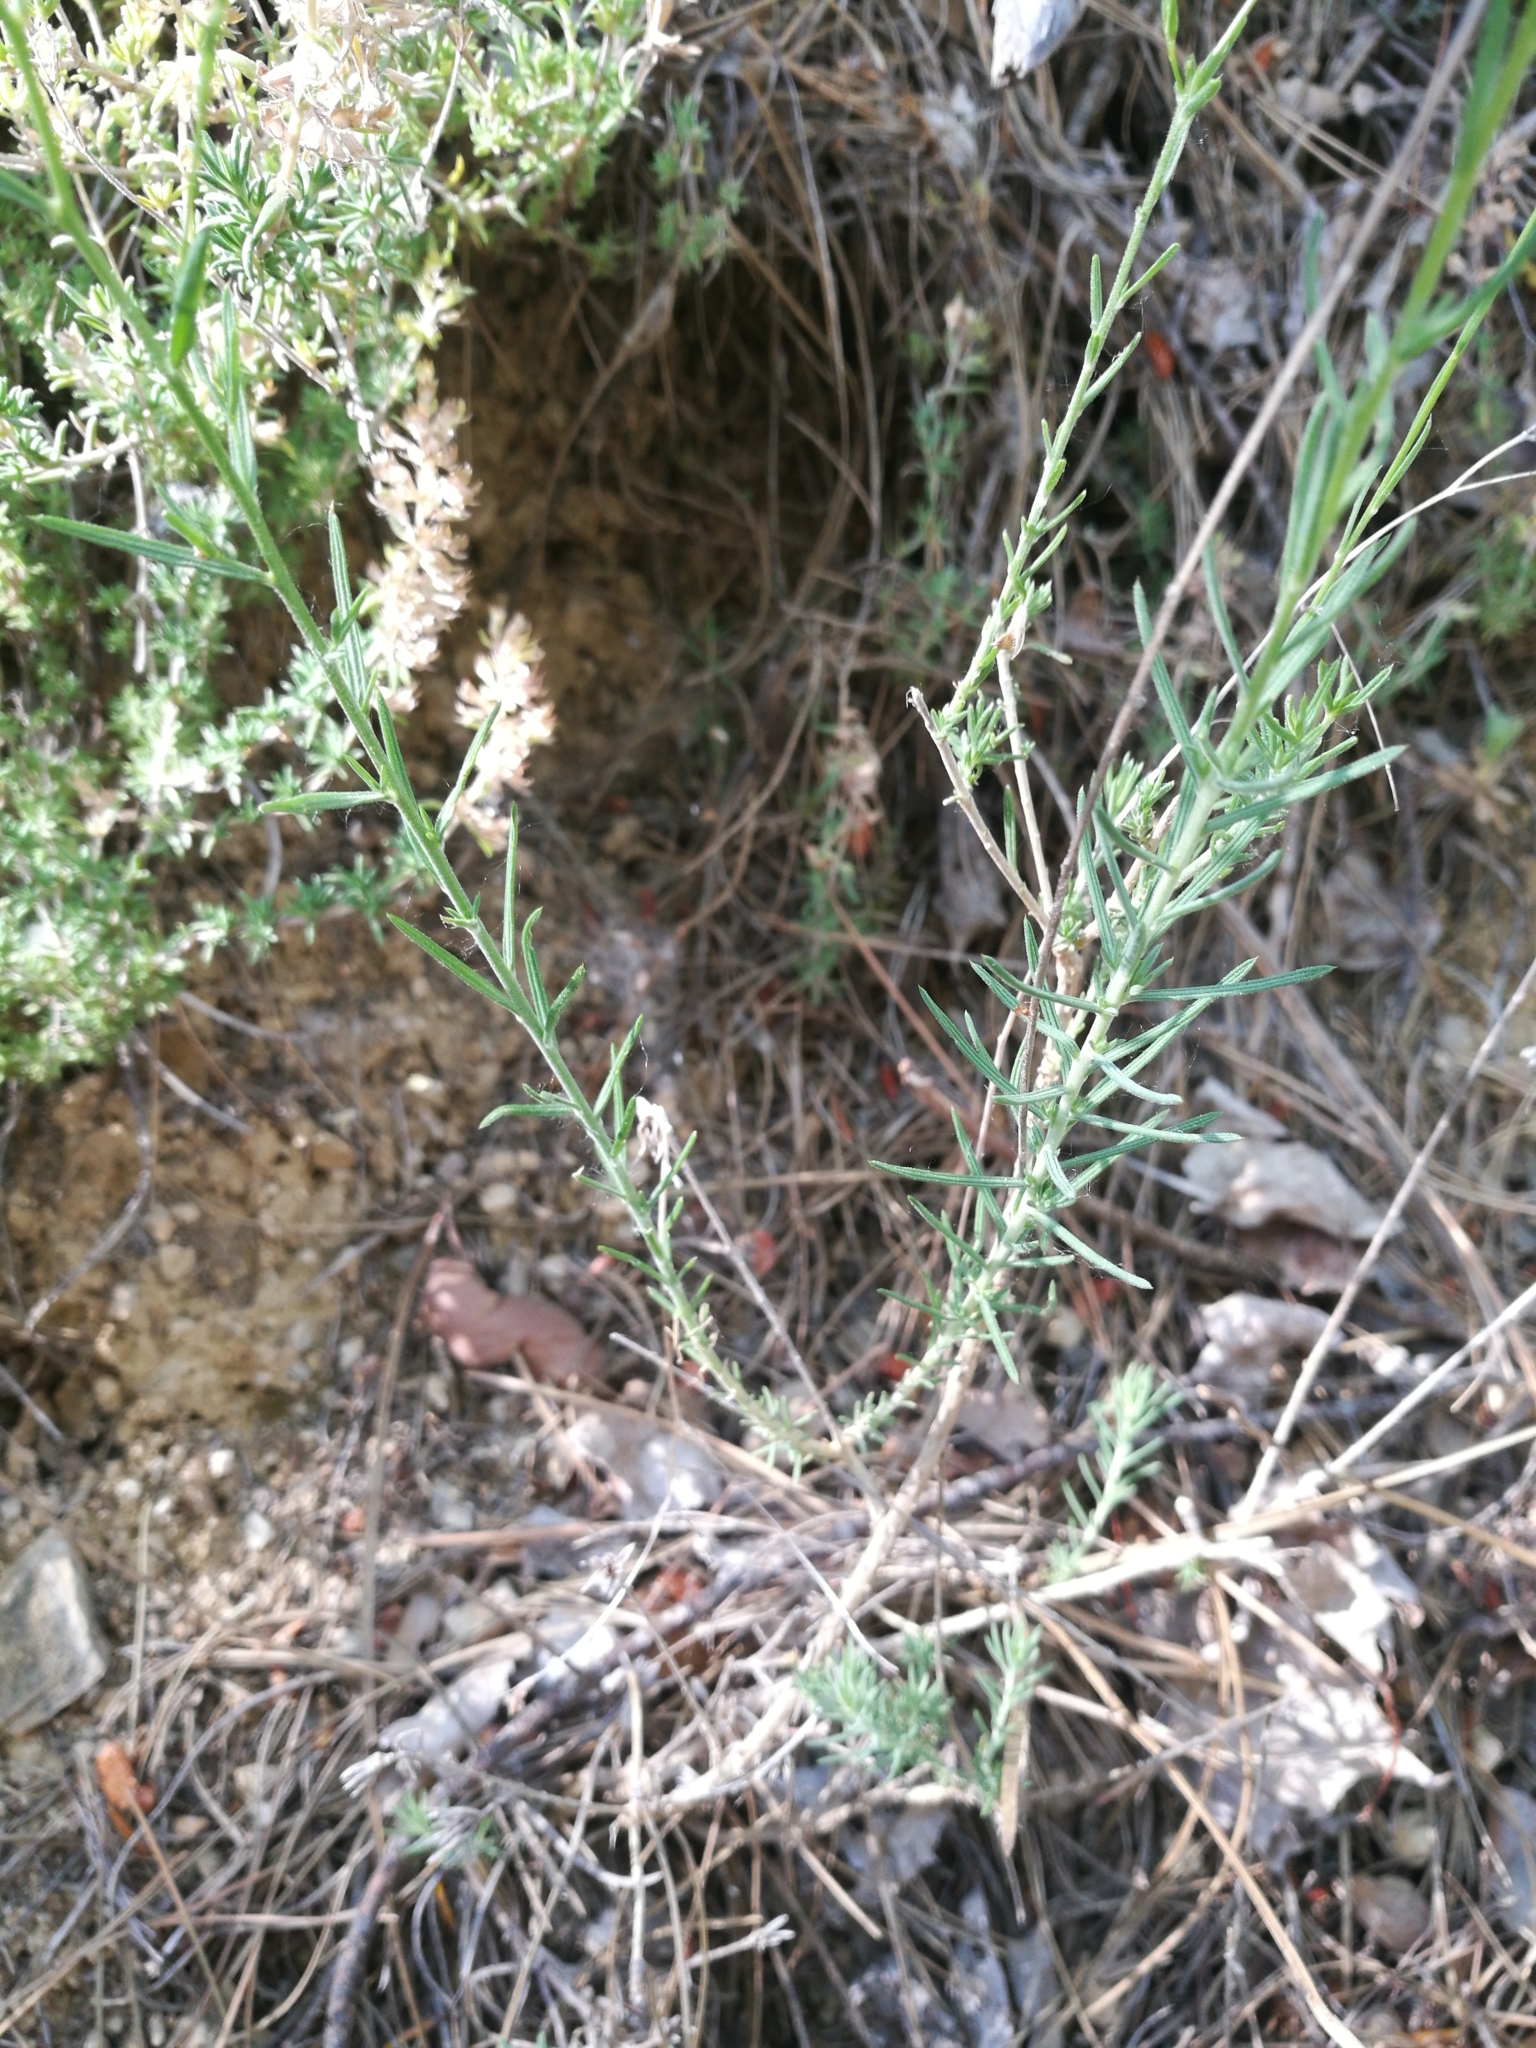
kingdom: Plantae
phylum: Tracheophyta
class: Magnoliopsida
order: Malpighiales
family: Linaceae
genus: Linum
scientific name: Linum suffruticosum
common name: White flax
